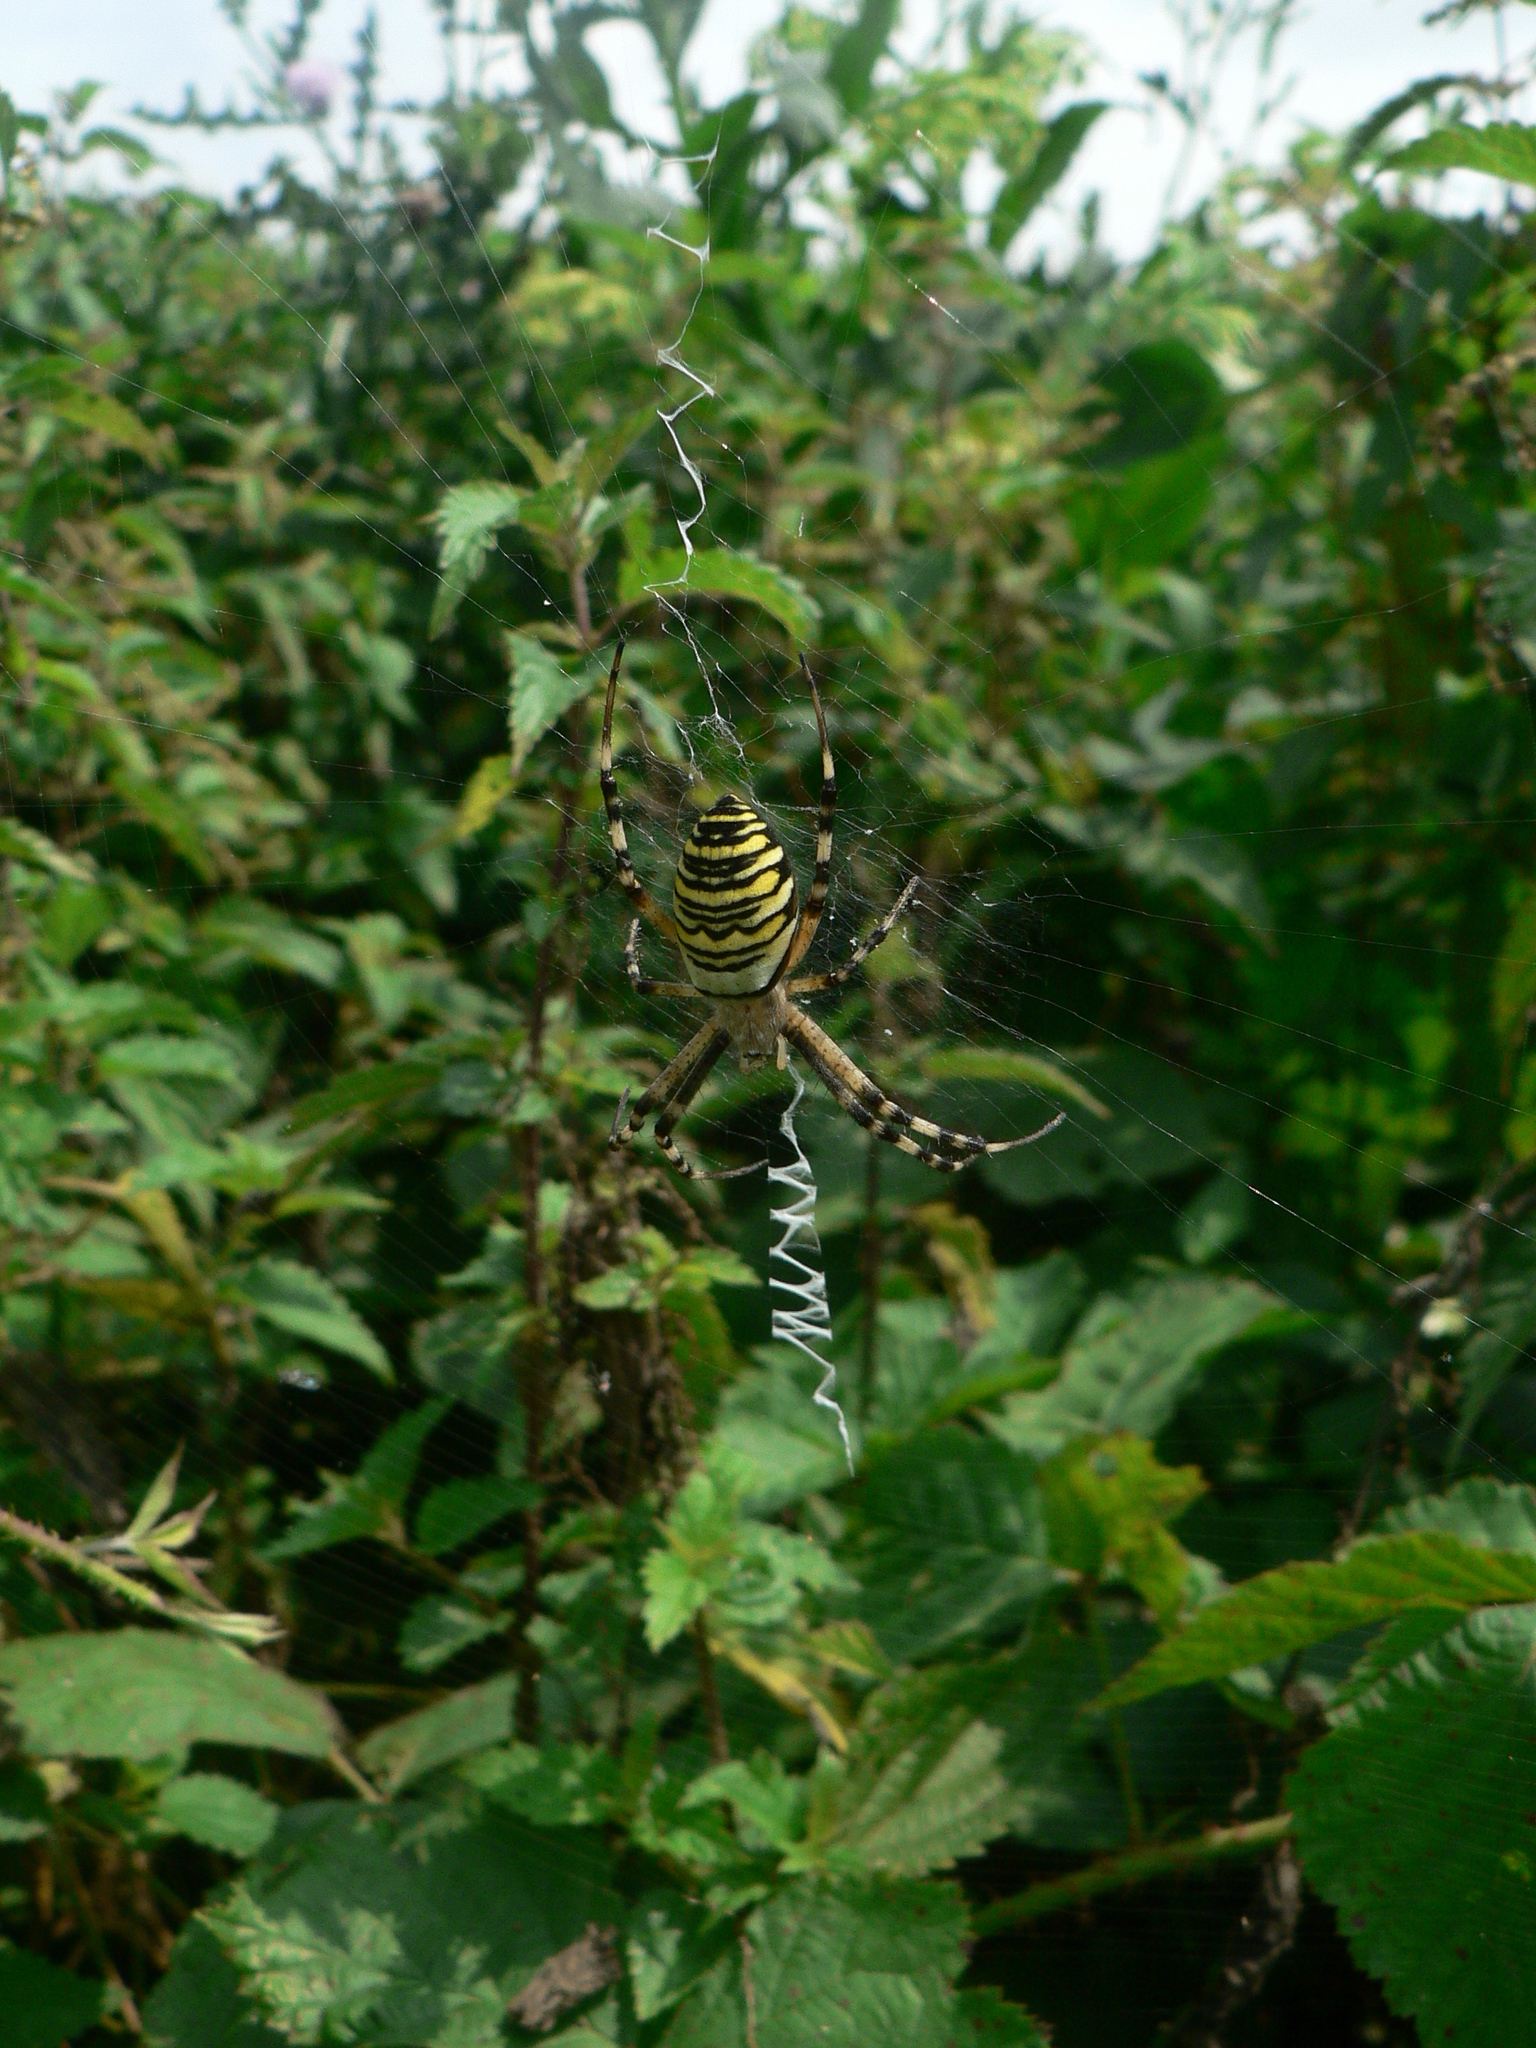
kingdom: Animalia
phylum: Arthropoda
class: Arachnida
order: Araneae
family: Araneidae
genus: Argiope
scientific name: Argiope bruennichi
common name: Wasp spider
